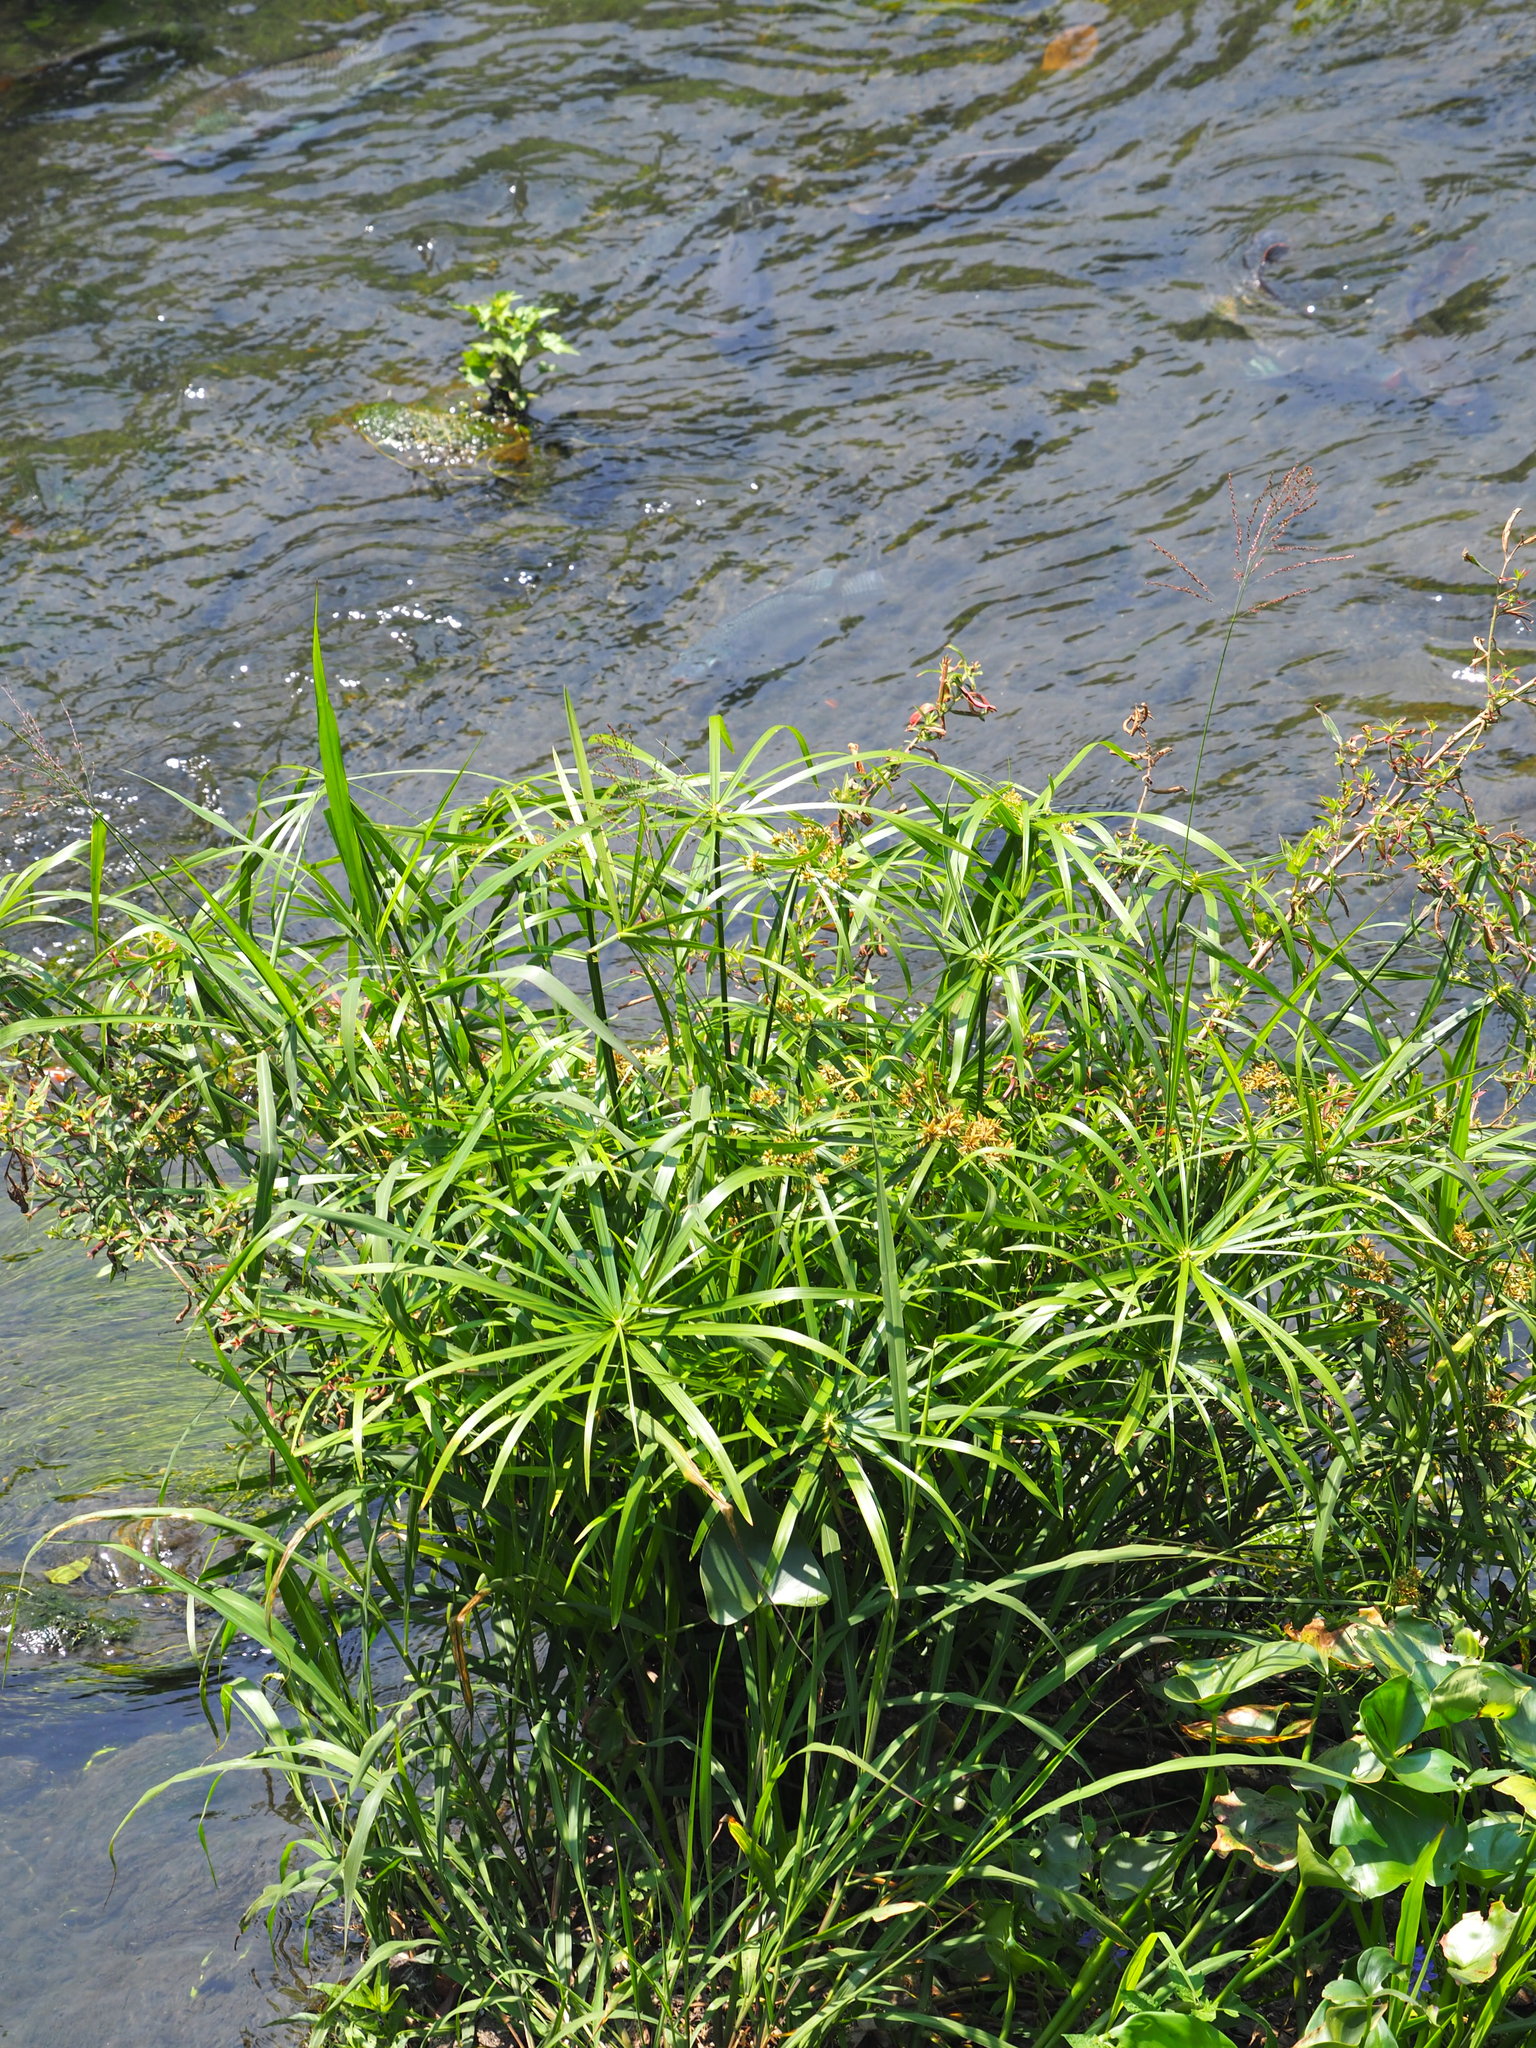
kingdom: Plantae
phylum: Tracheophyta
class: Liliopsida
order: Poales
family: Cyperaceae
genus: Cyperus
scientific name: Cyperus alternifolius
